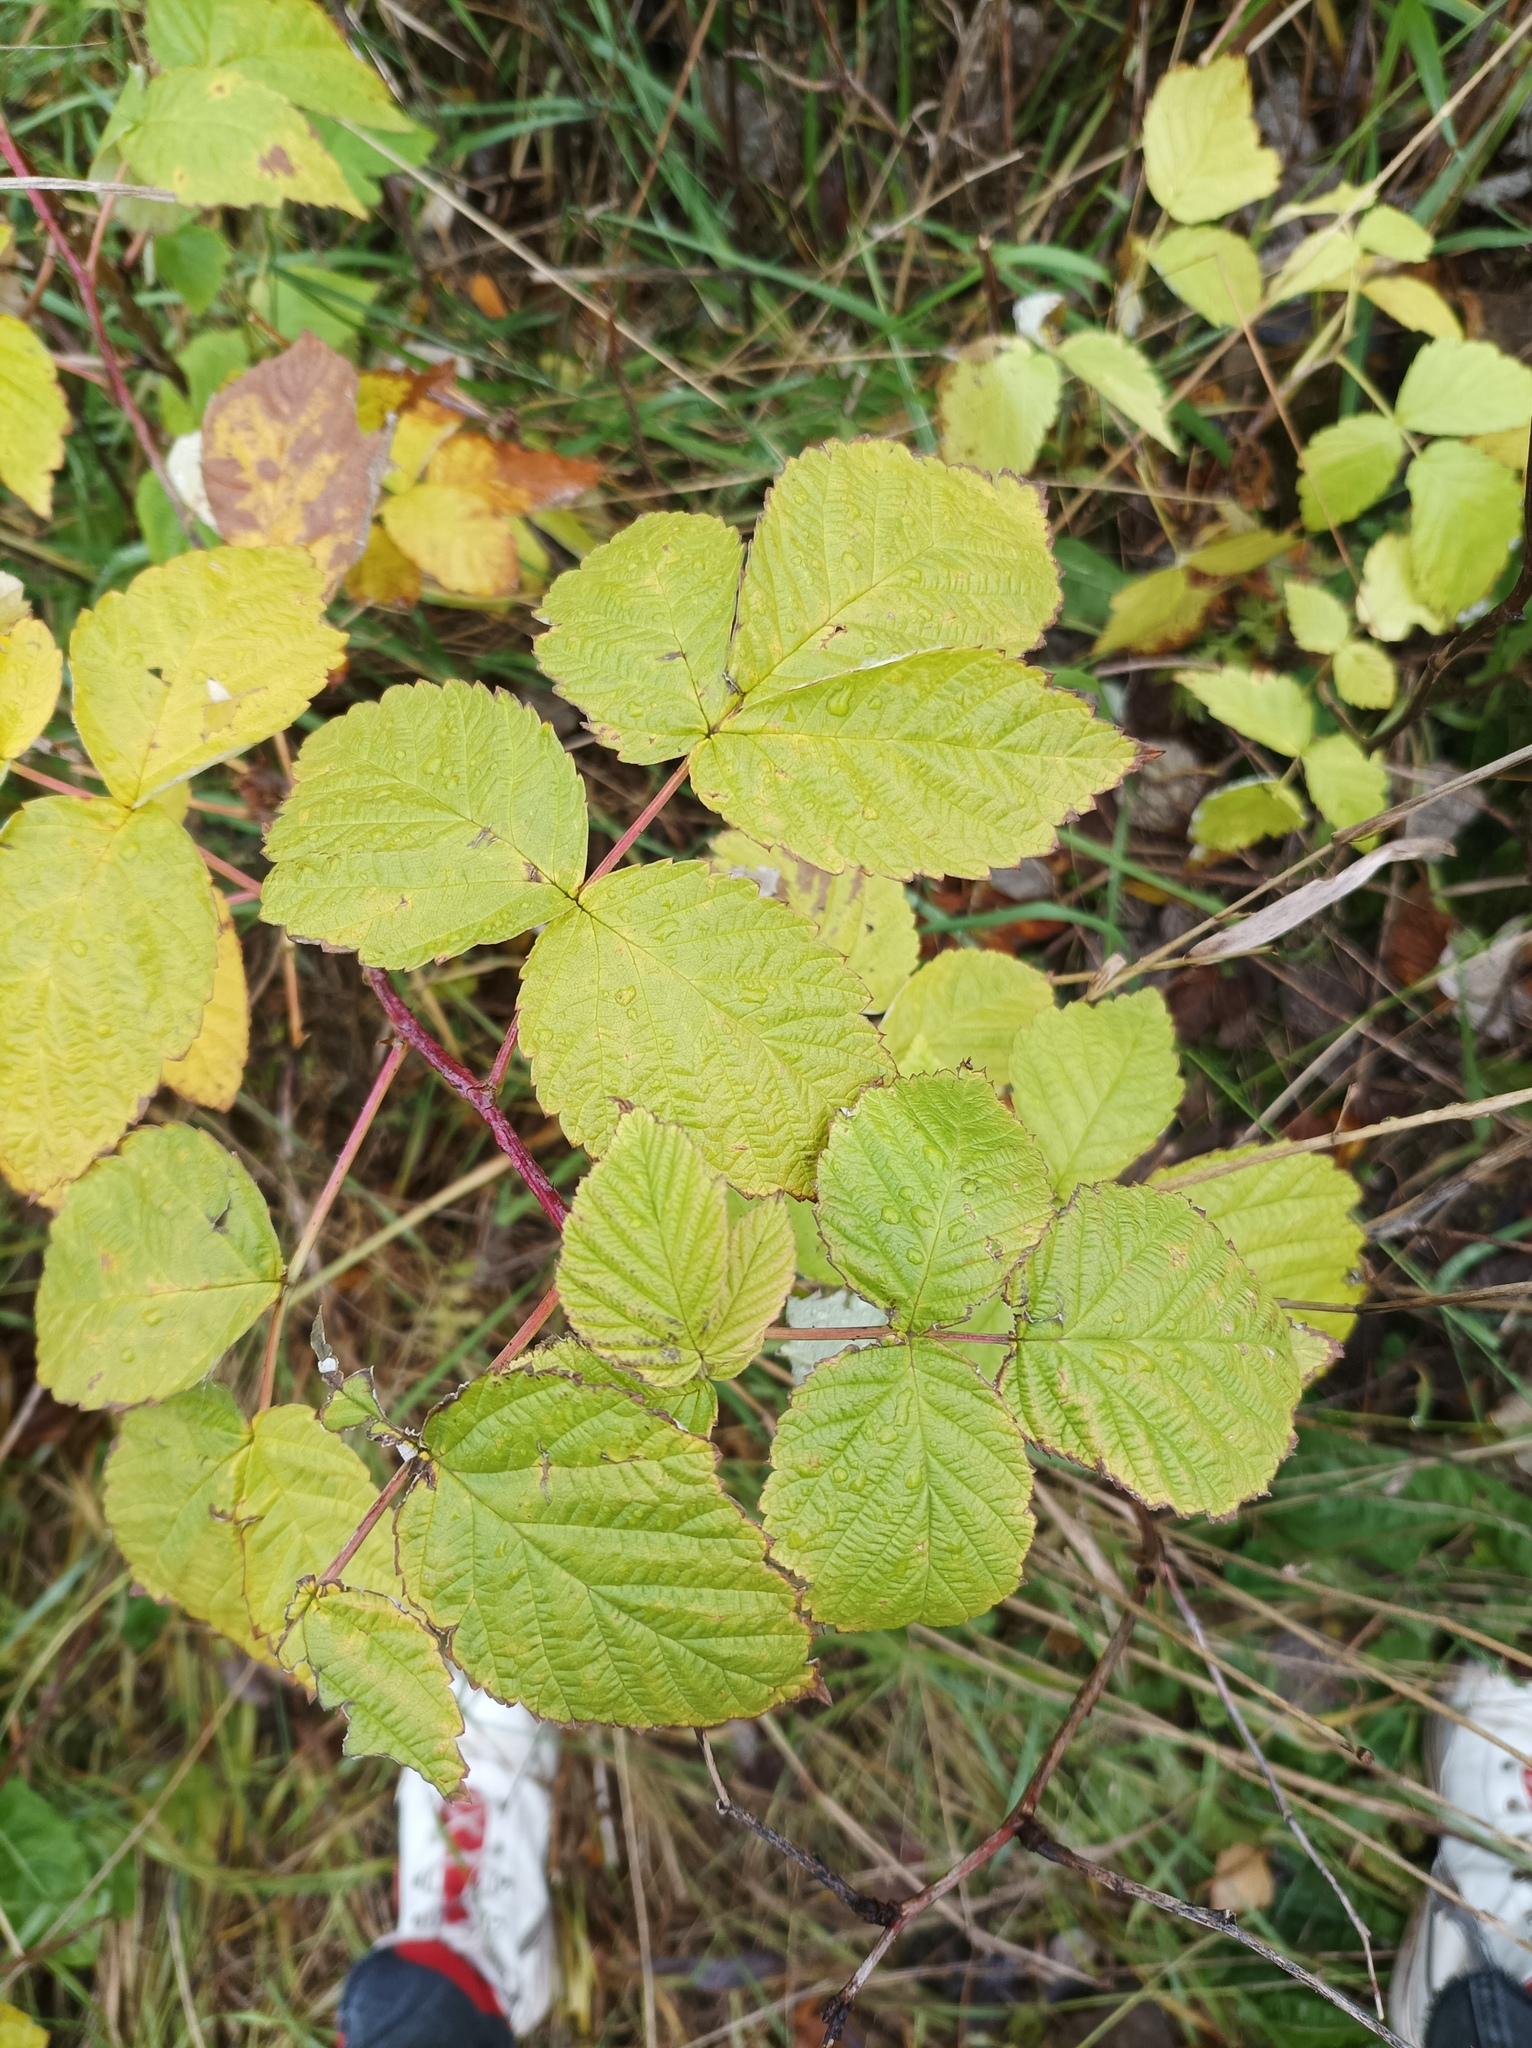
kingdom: Plantae
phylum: Tracheophyta
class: Magnoliopsida
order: Rosales
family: Rosaceae
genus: Rubus
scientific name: Rubus idaeus
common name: Raspberry
